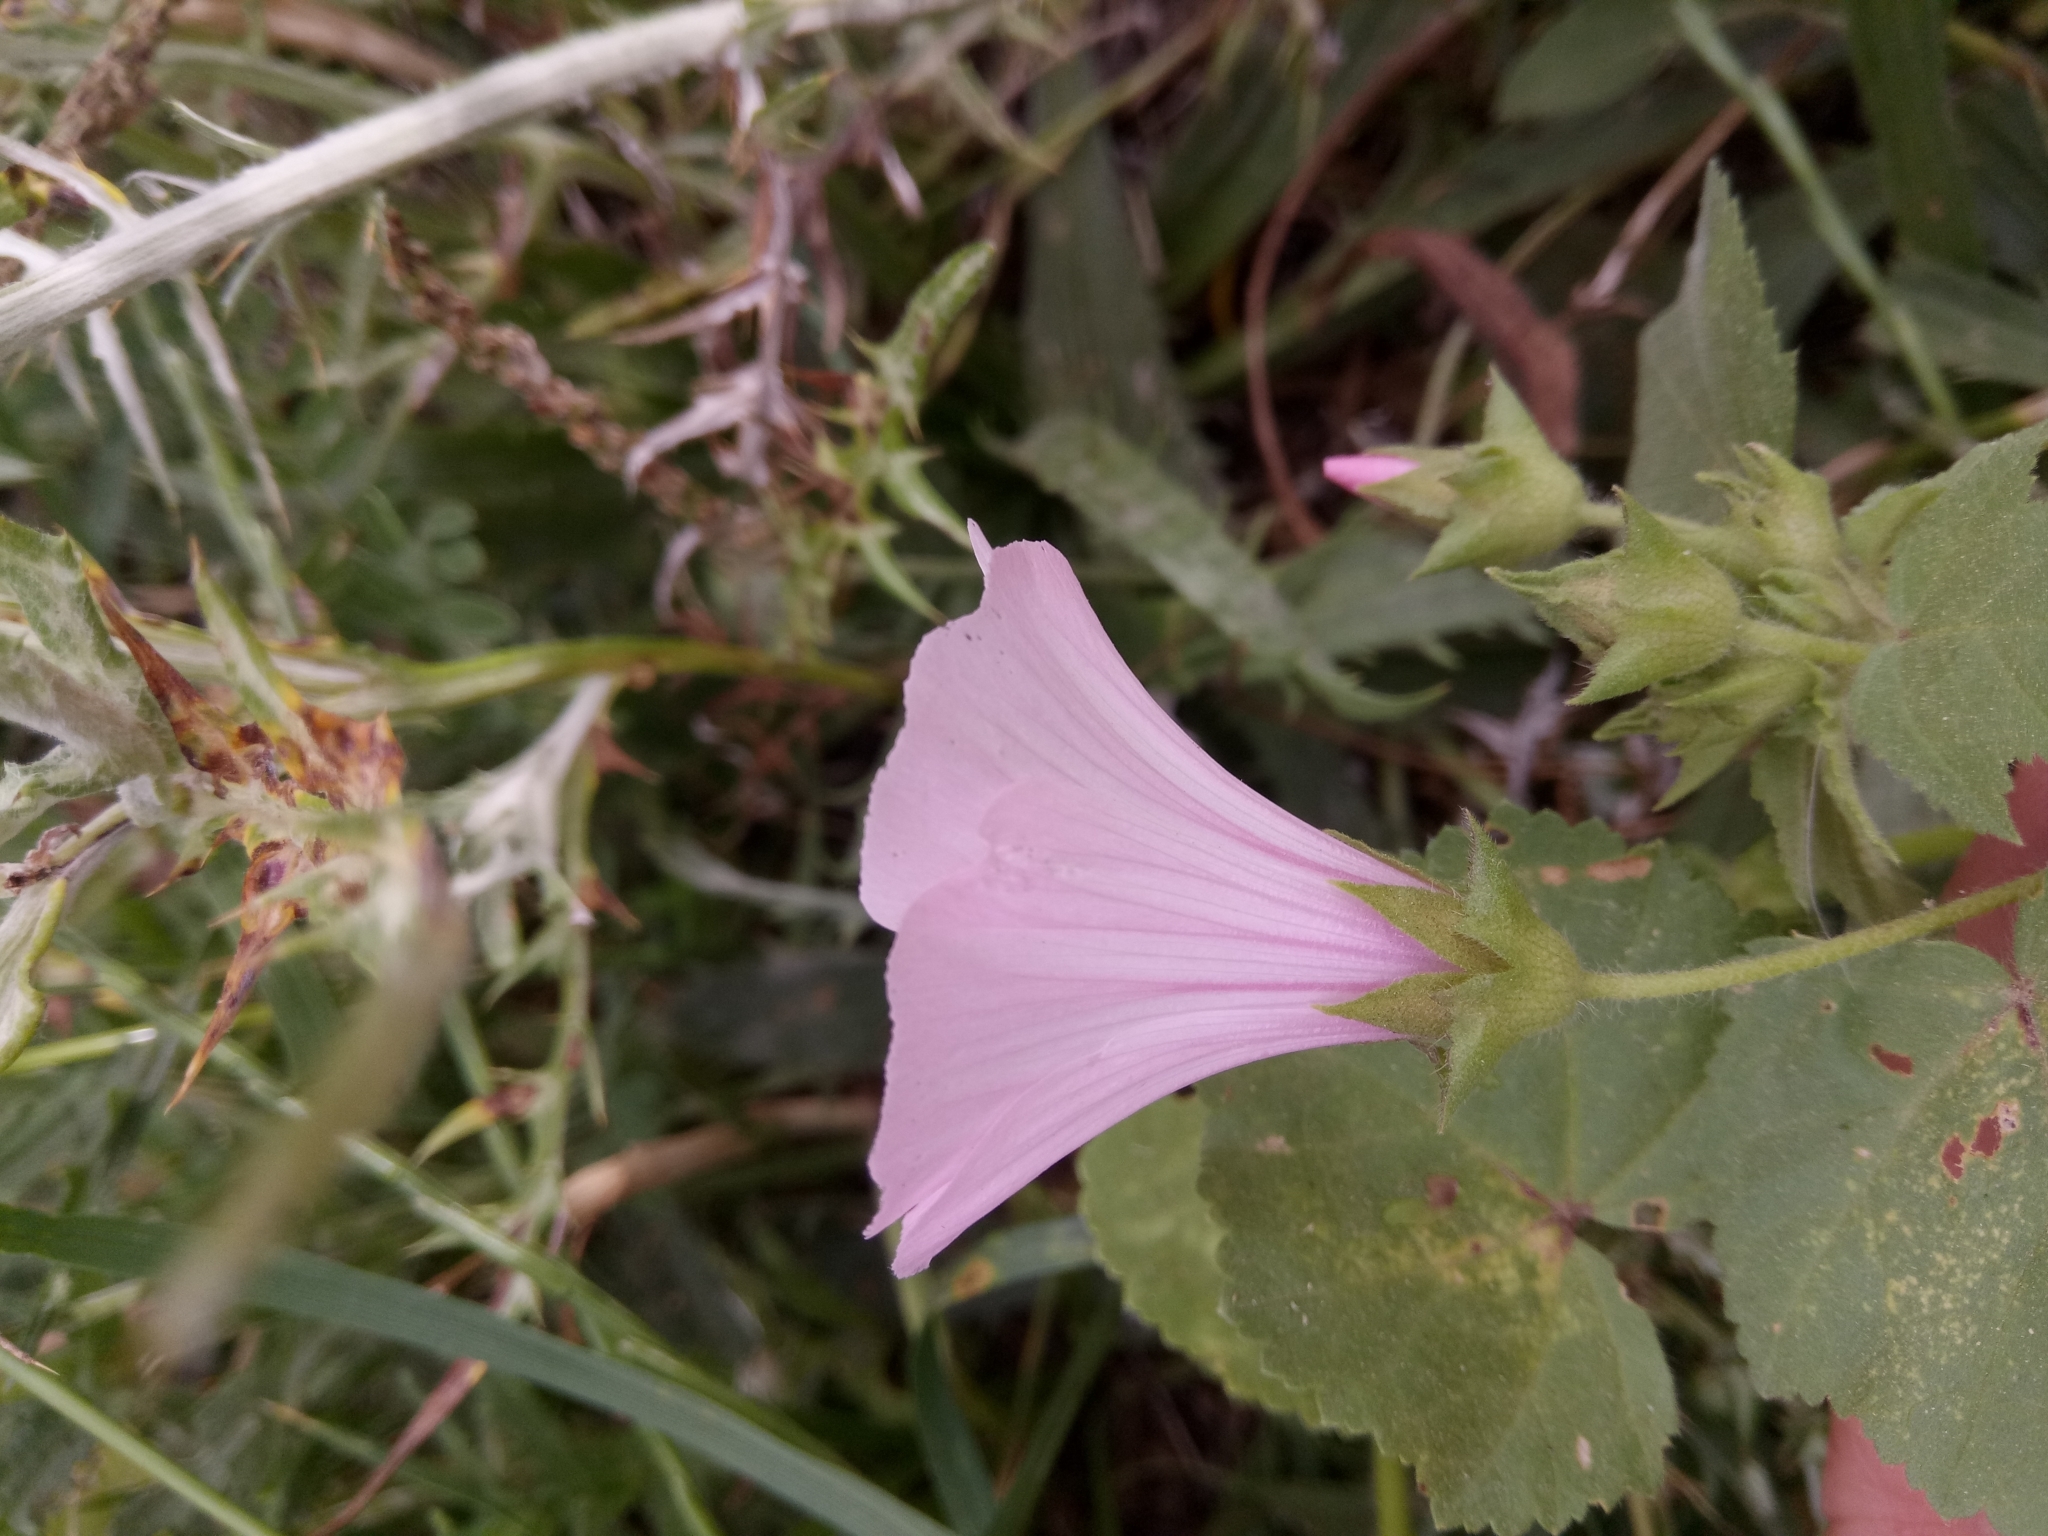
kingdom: Plantae
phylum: Tracheophyta
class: Magnoliopsida
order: Malvales
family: Malvaceae
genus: Malva
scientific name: Malva trimestris
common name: Royal mallow
